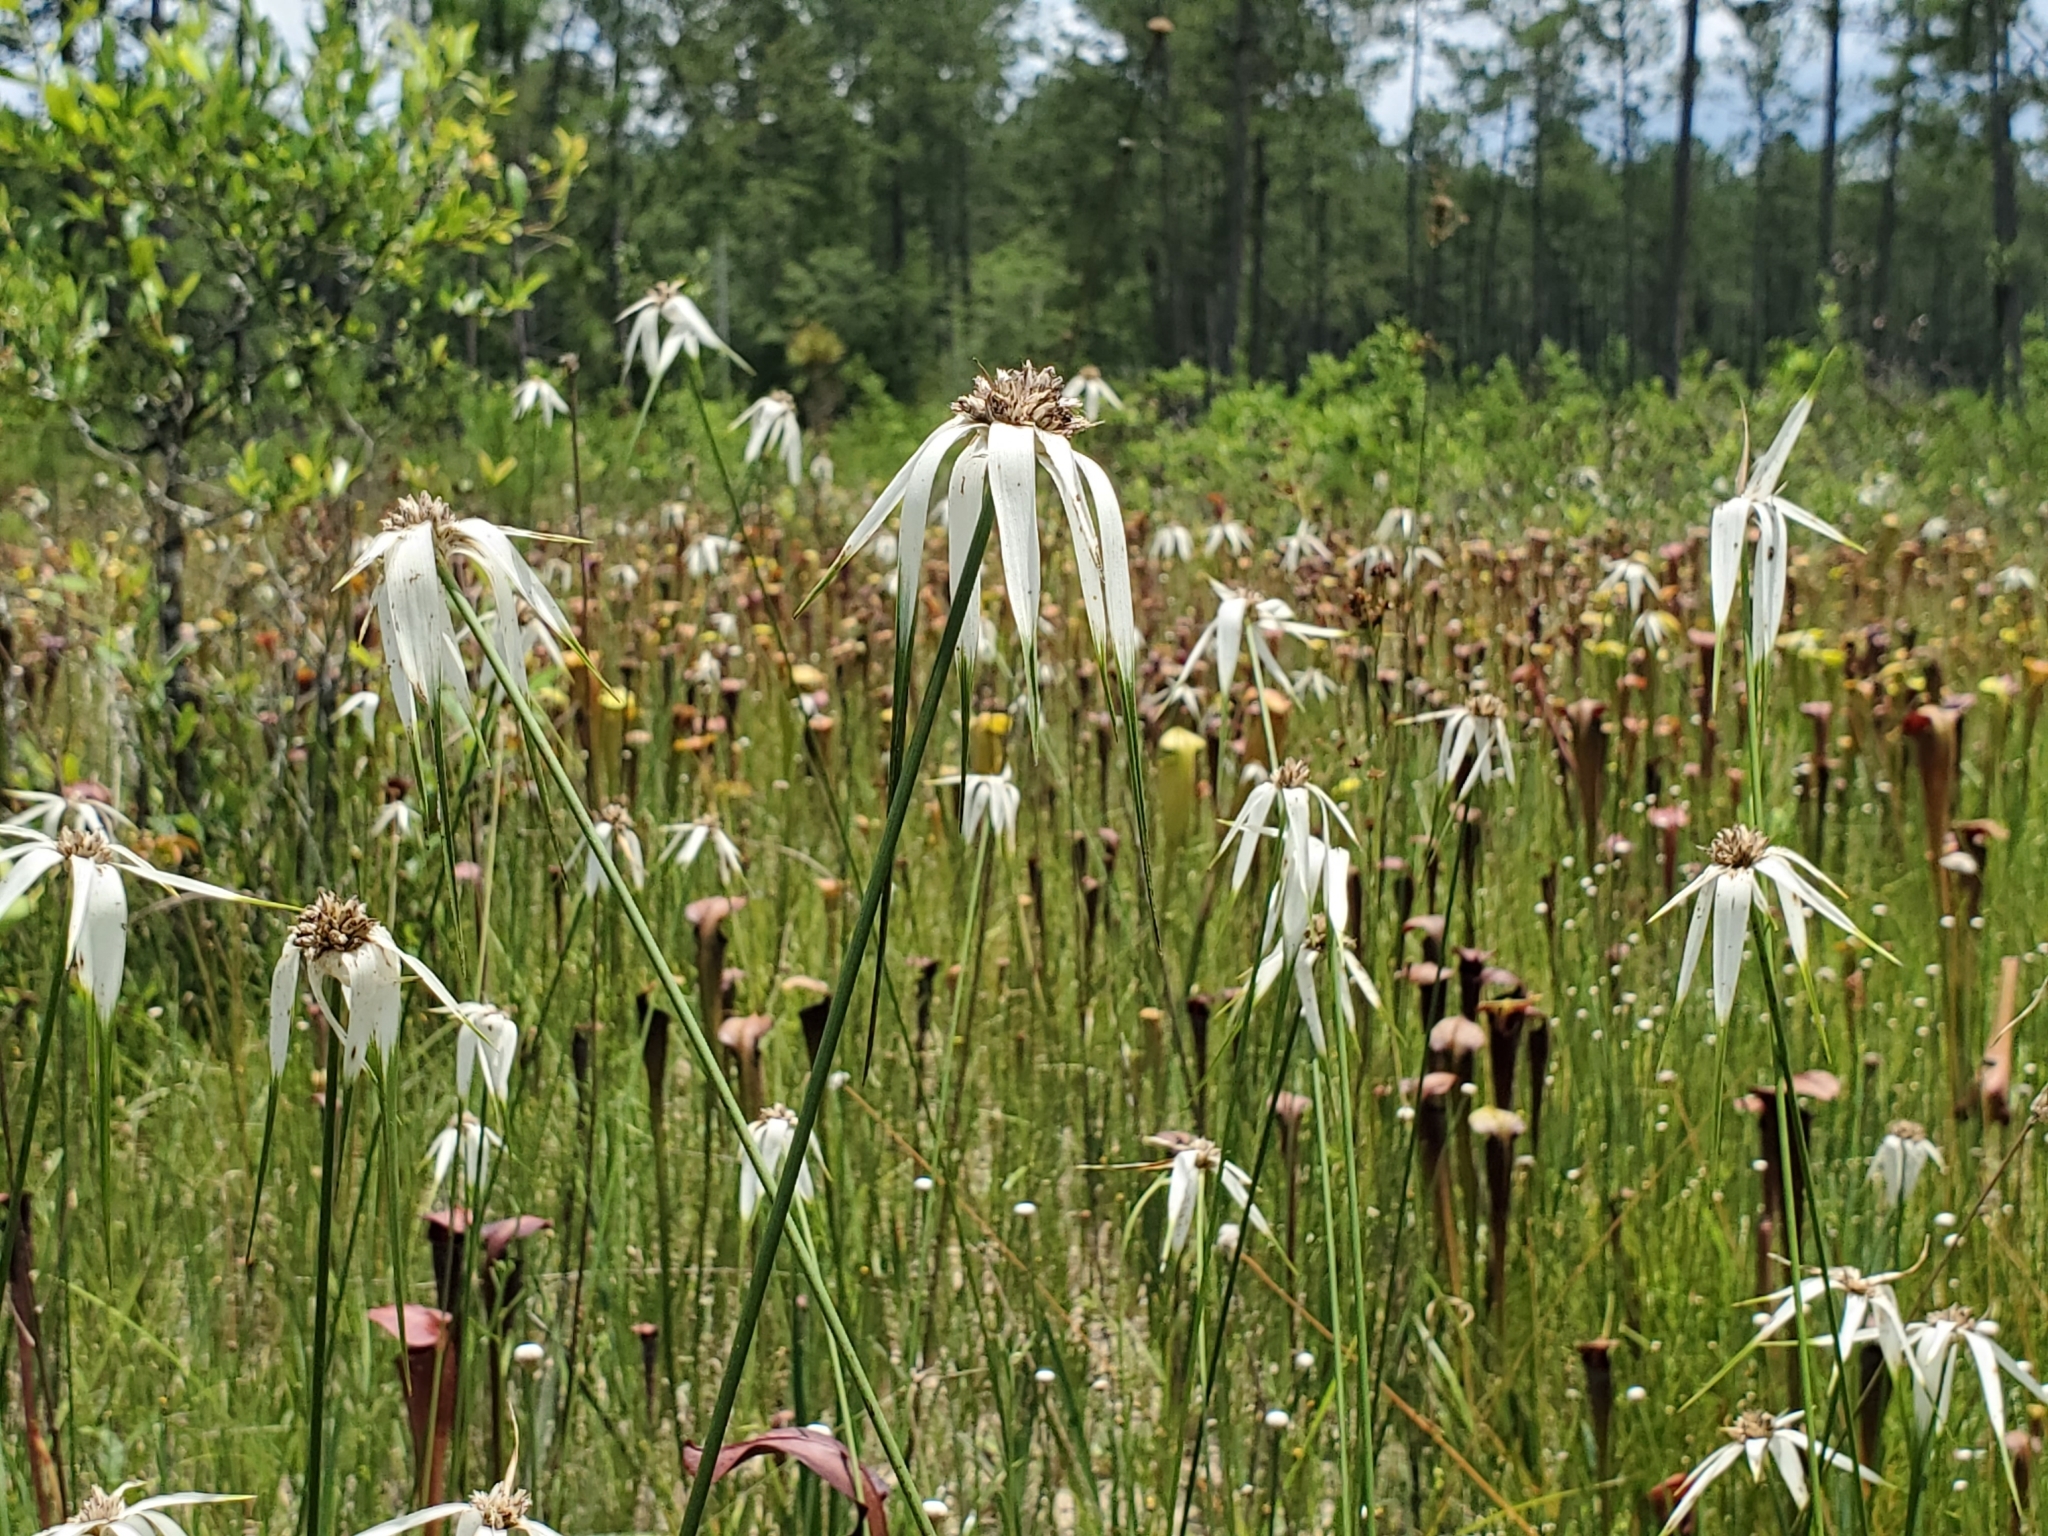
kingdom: Plantae
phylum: Tracheophyta
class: Liliopsida
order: Poales
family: Cyperaceae
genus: Rhynchospora
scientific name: Rhynchospora latifolia
